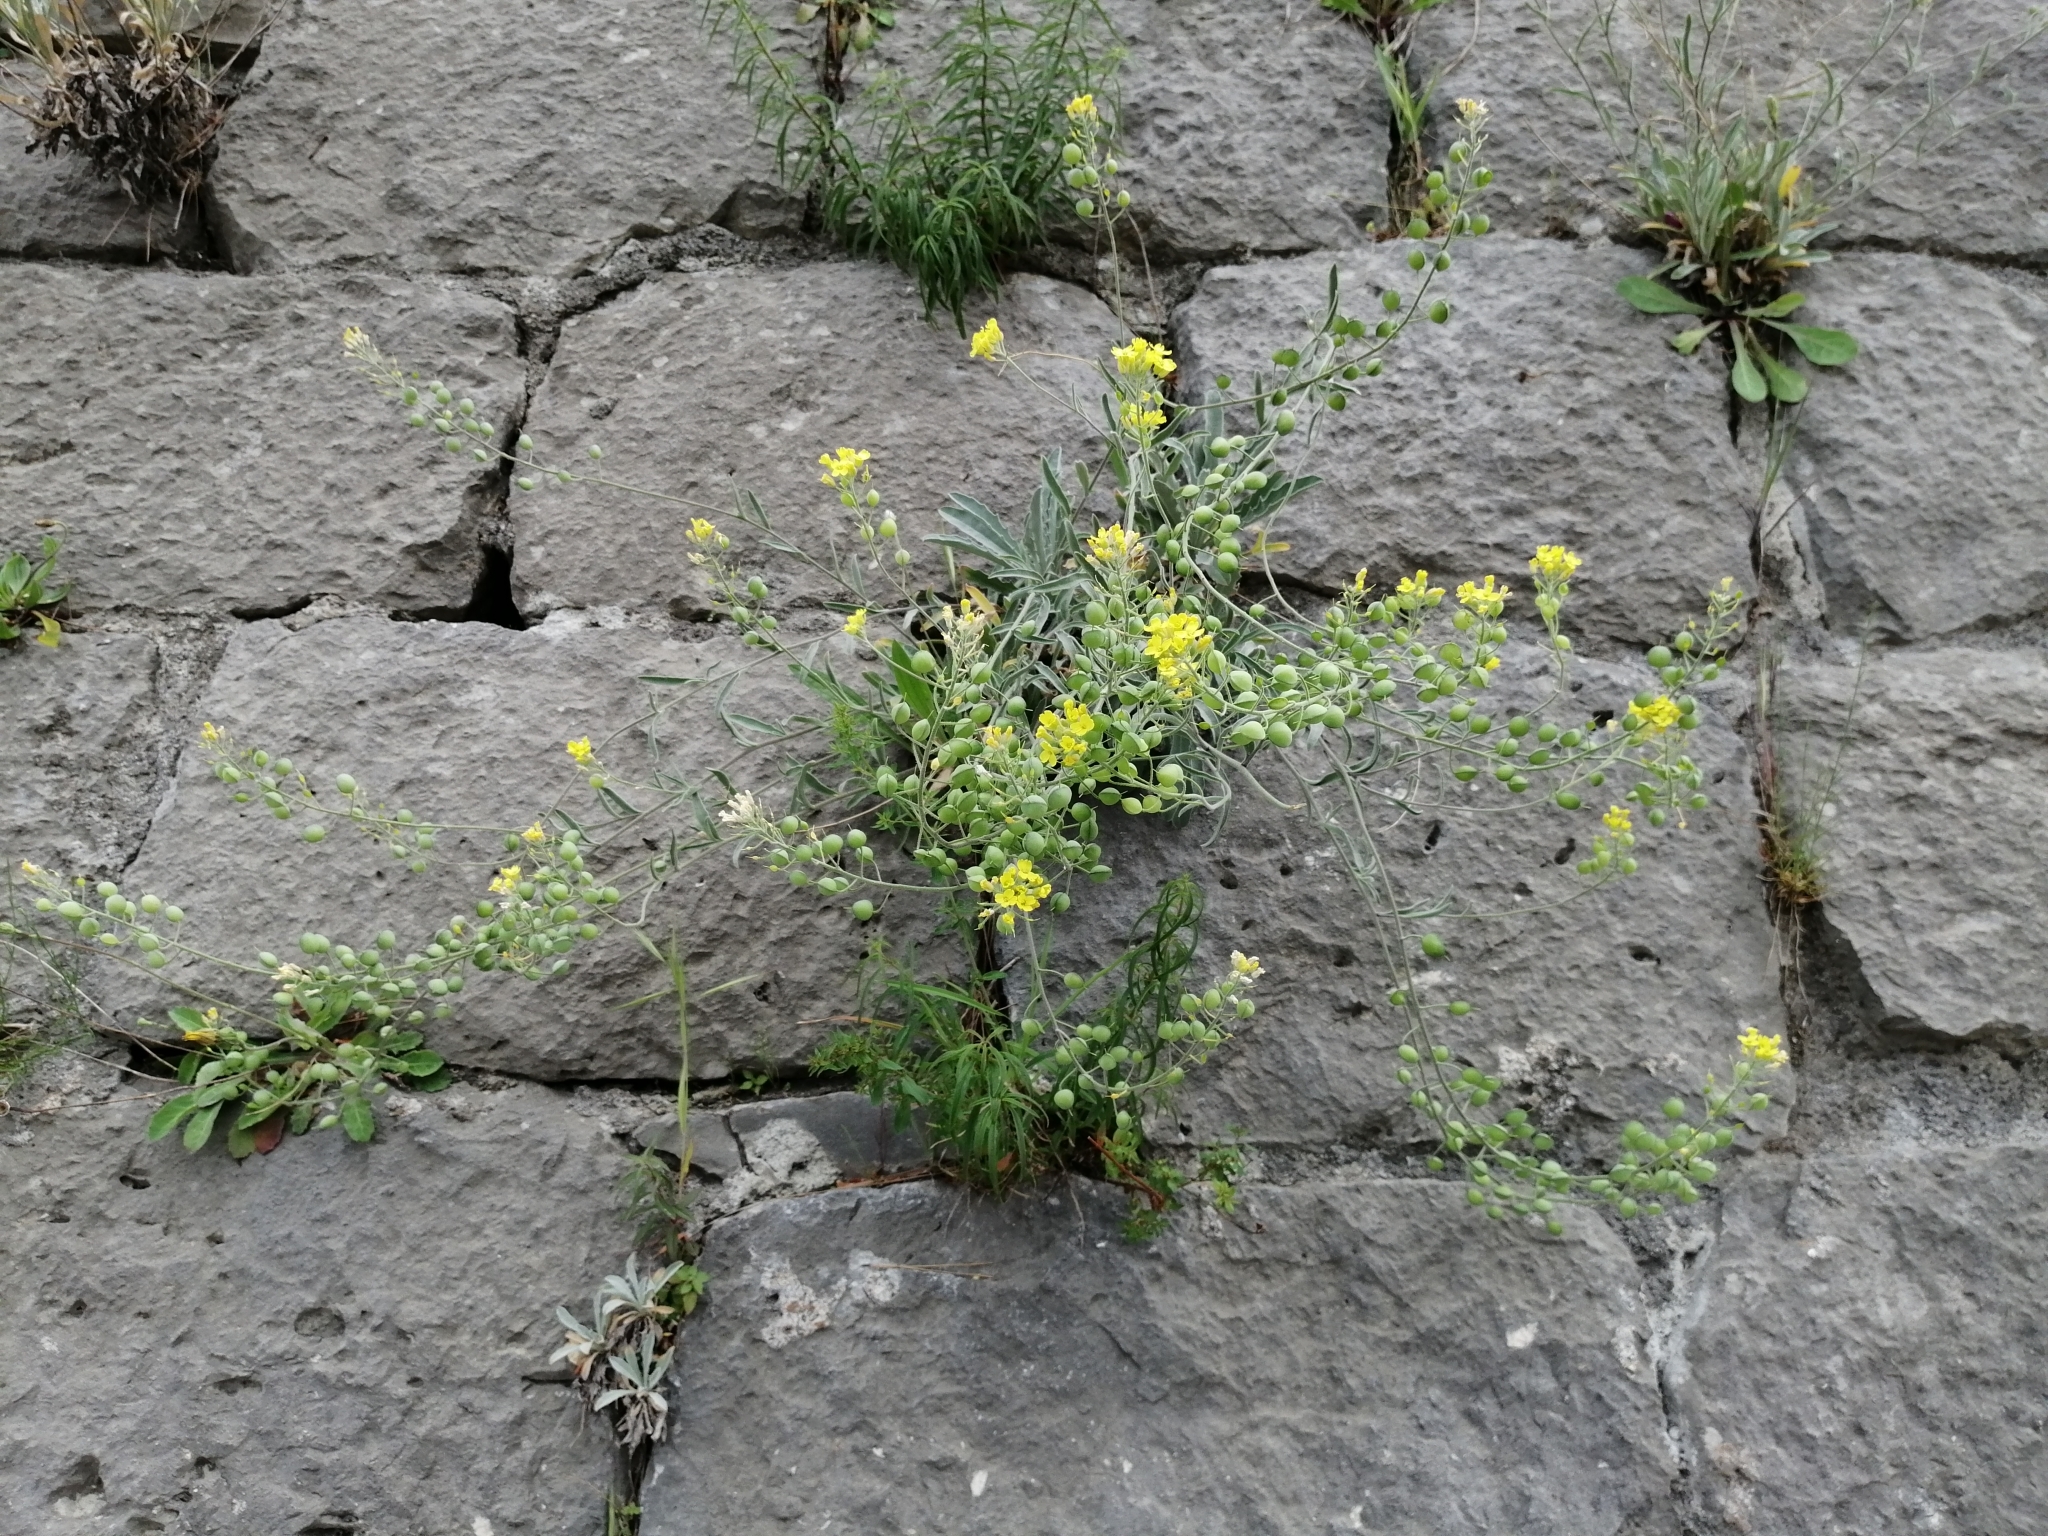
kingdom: Plantae
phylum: Tracheophyta
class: Magnoliopsida
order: Brassicales
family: Brassicaceae
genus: Aurinia
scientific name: Aurinia sinuata
